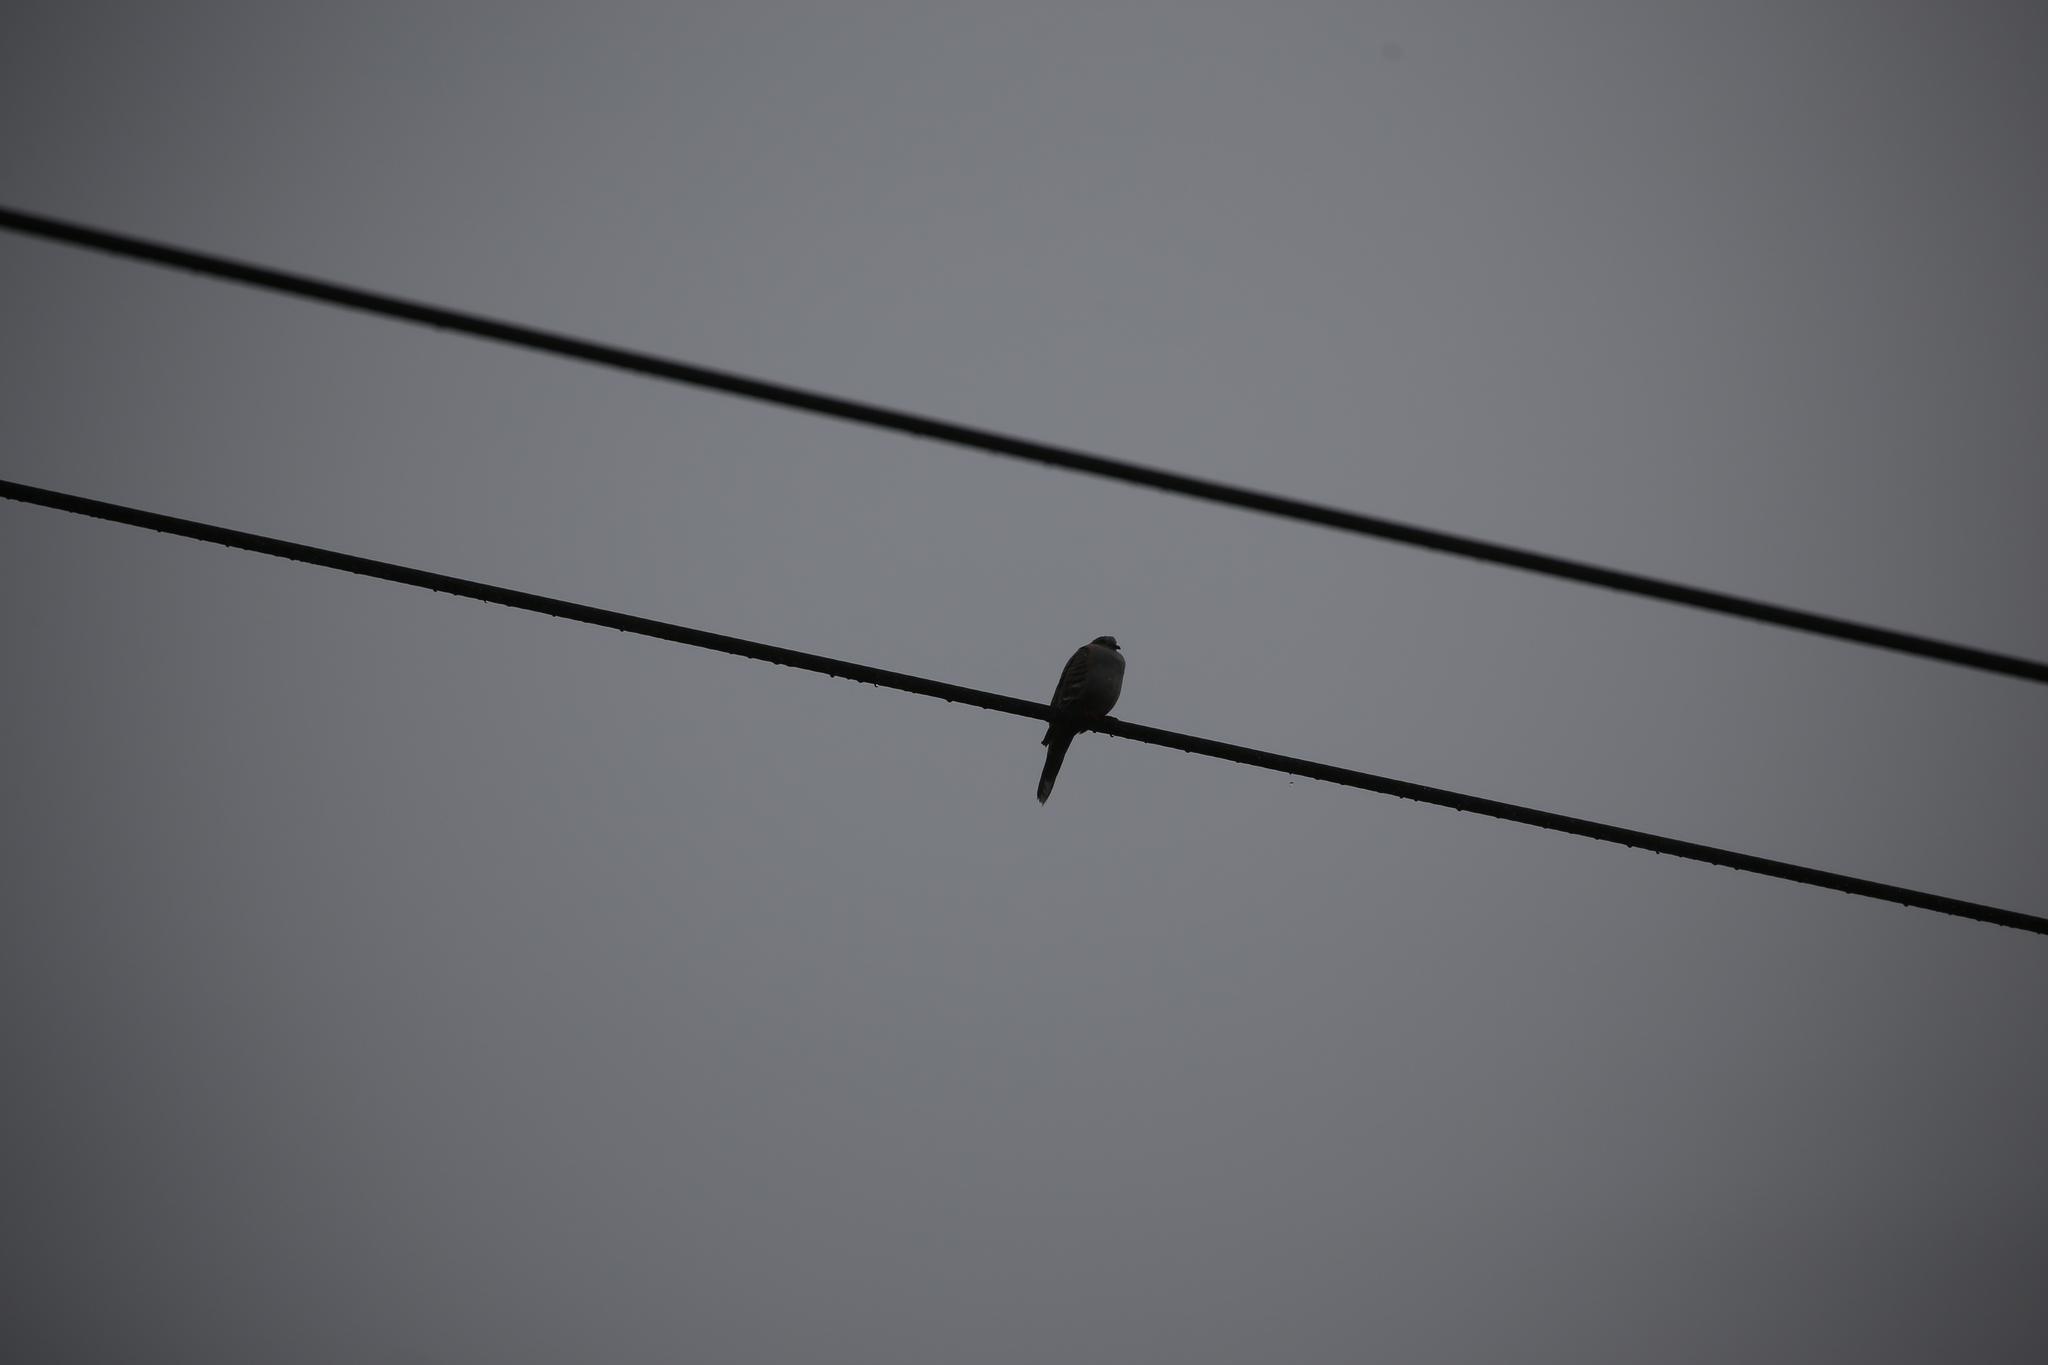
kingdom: Animalia
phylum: Chordata
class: Aves
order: Columbiformes
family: Columbidae
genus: Ocyphaps
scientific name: Ocyphaps lophotes
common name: Crested pigeon
